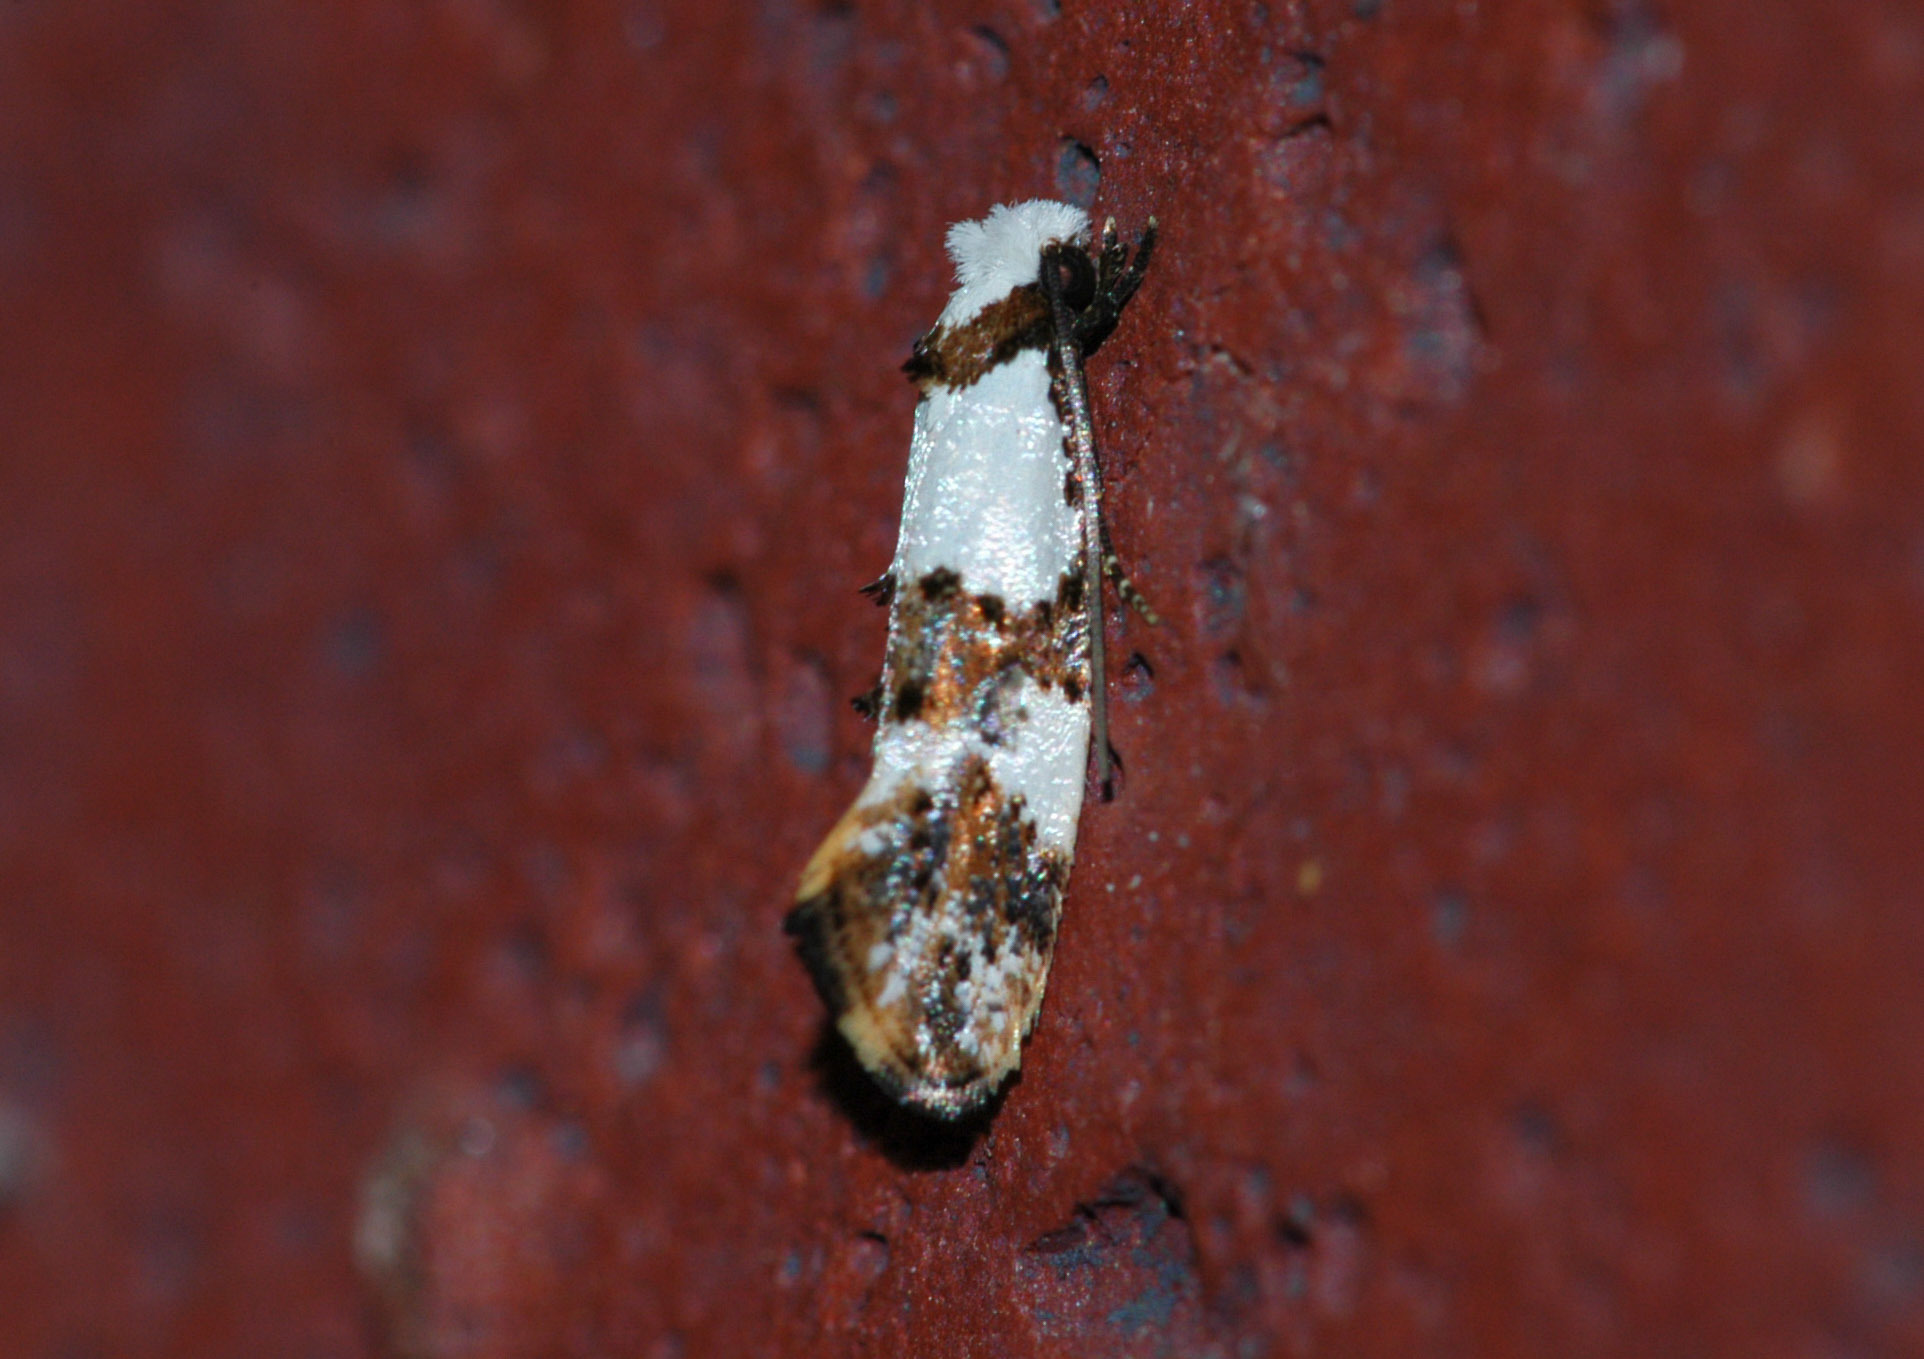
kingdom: Animalia
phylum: Arthropoda
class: Insecta
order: Lepidoptera
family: Tineidae
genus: Monopis
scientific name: Monopis meliorella
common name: Blotched monopis moth
